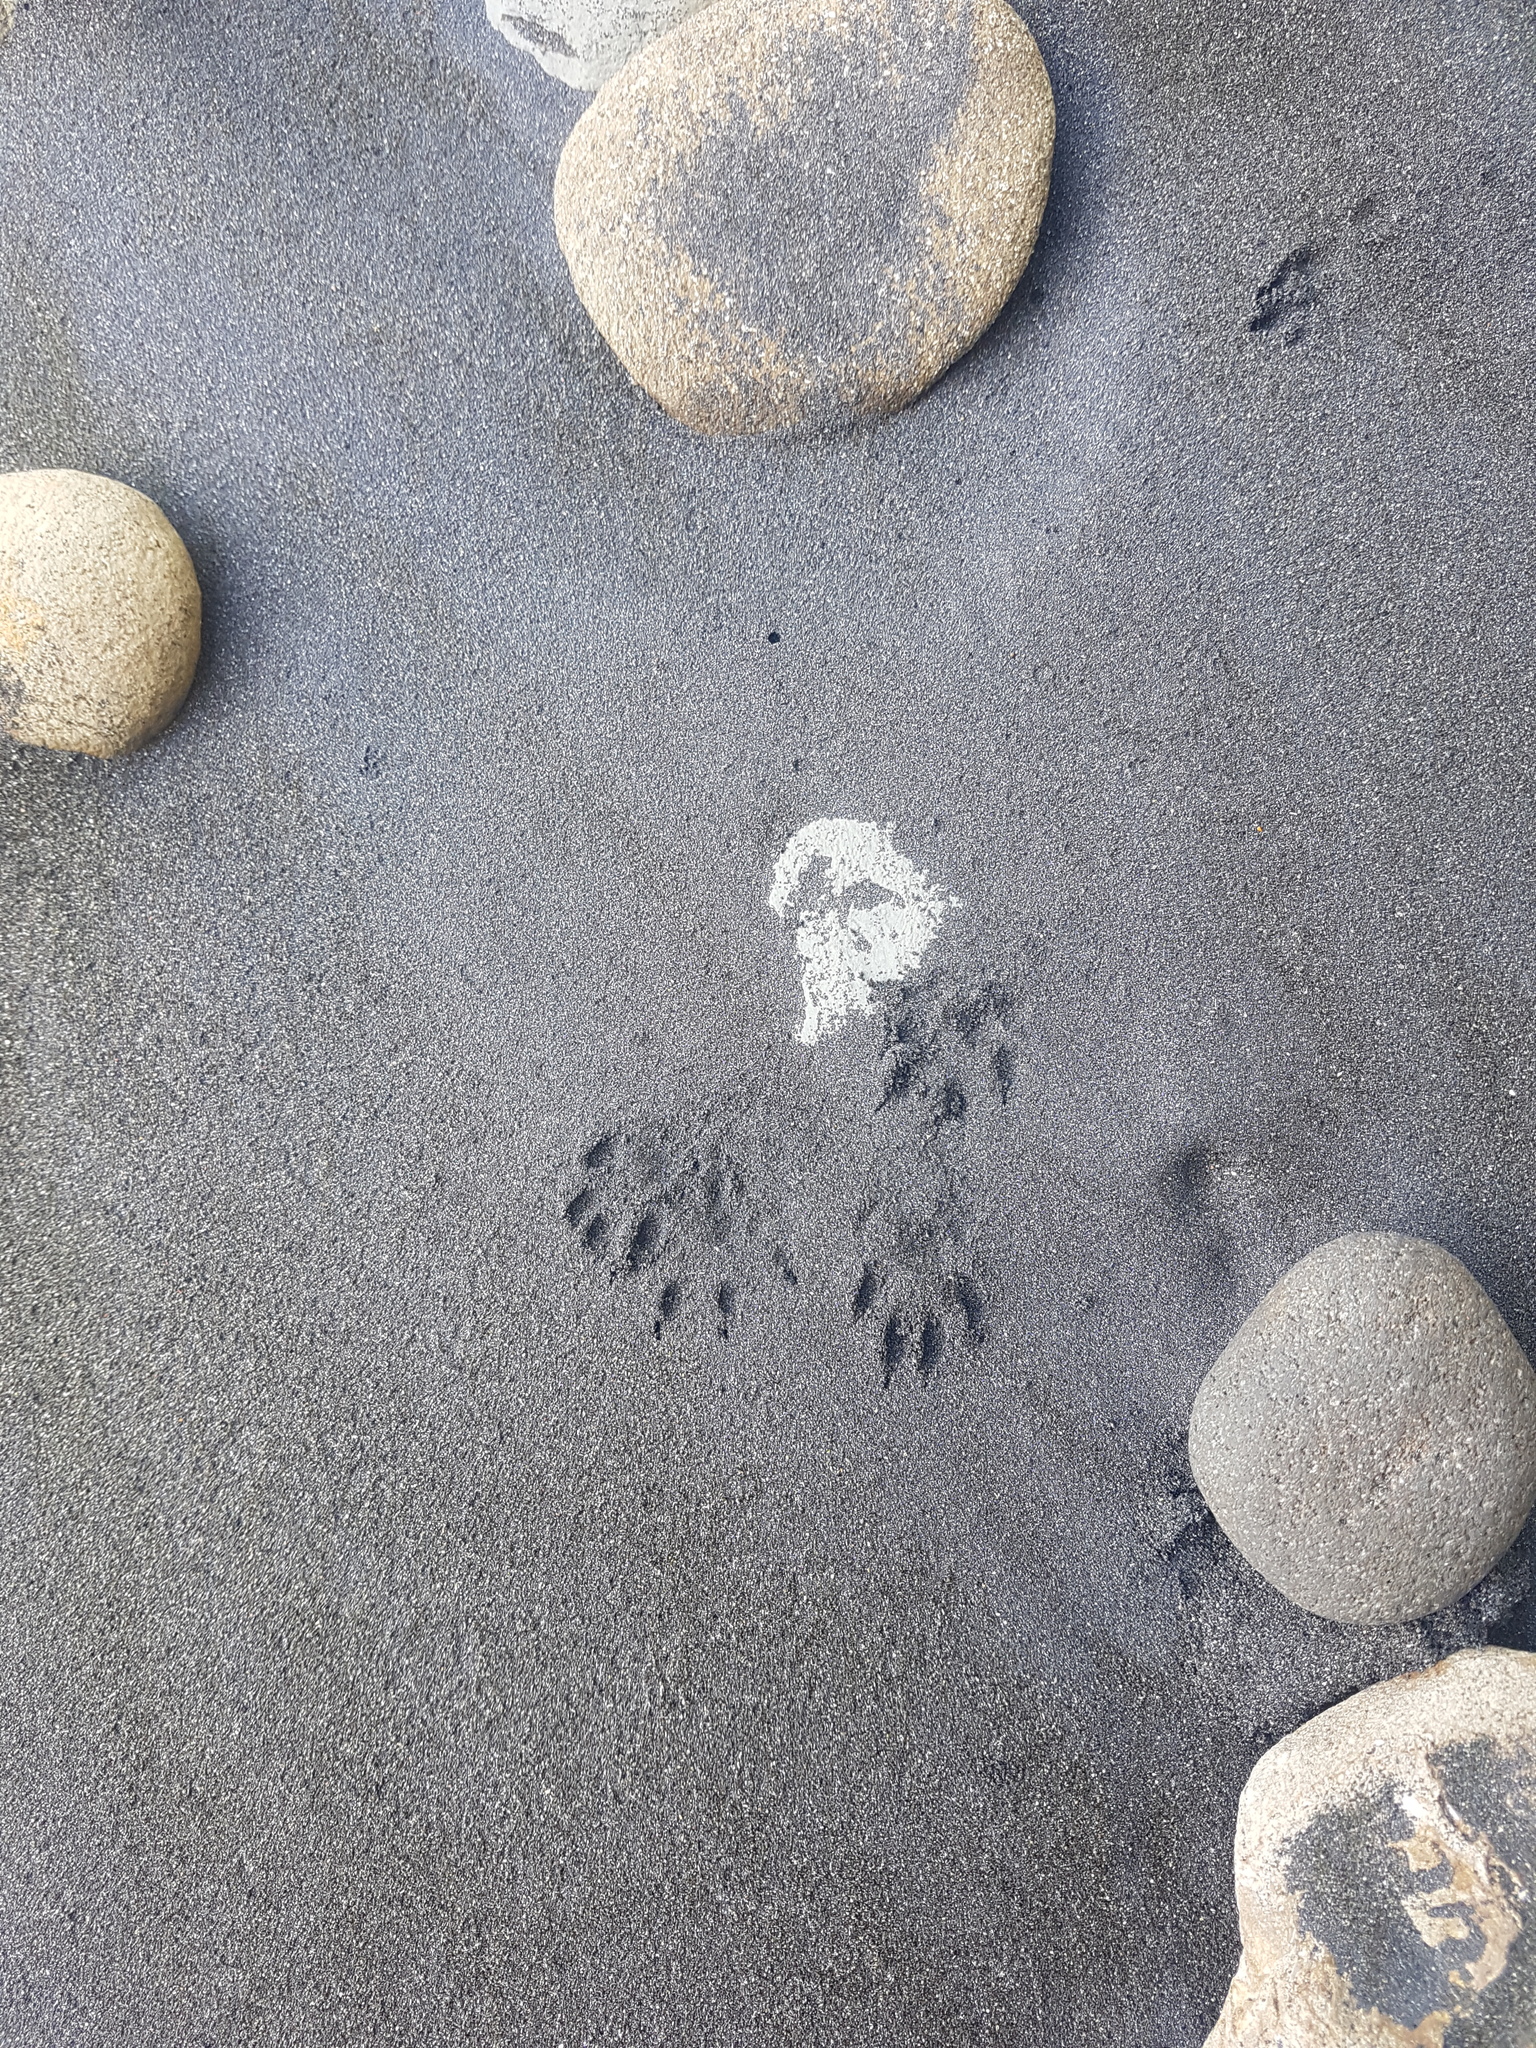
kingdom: Animalia
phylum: Chordata
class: Mammalia
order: Carnivora
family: Mustelidae
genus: Mustela
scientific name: Mustela erminea
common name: Stoat
